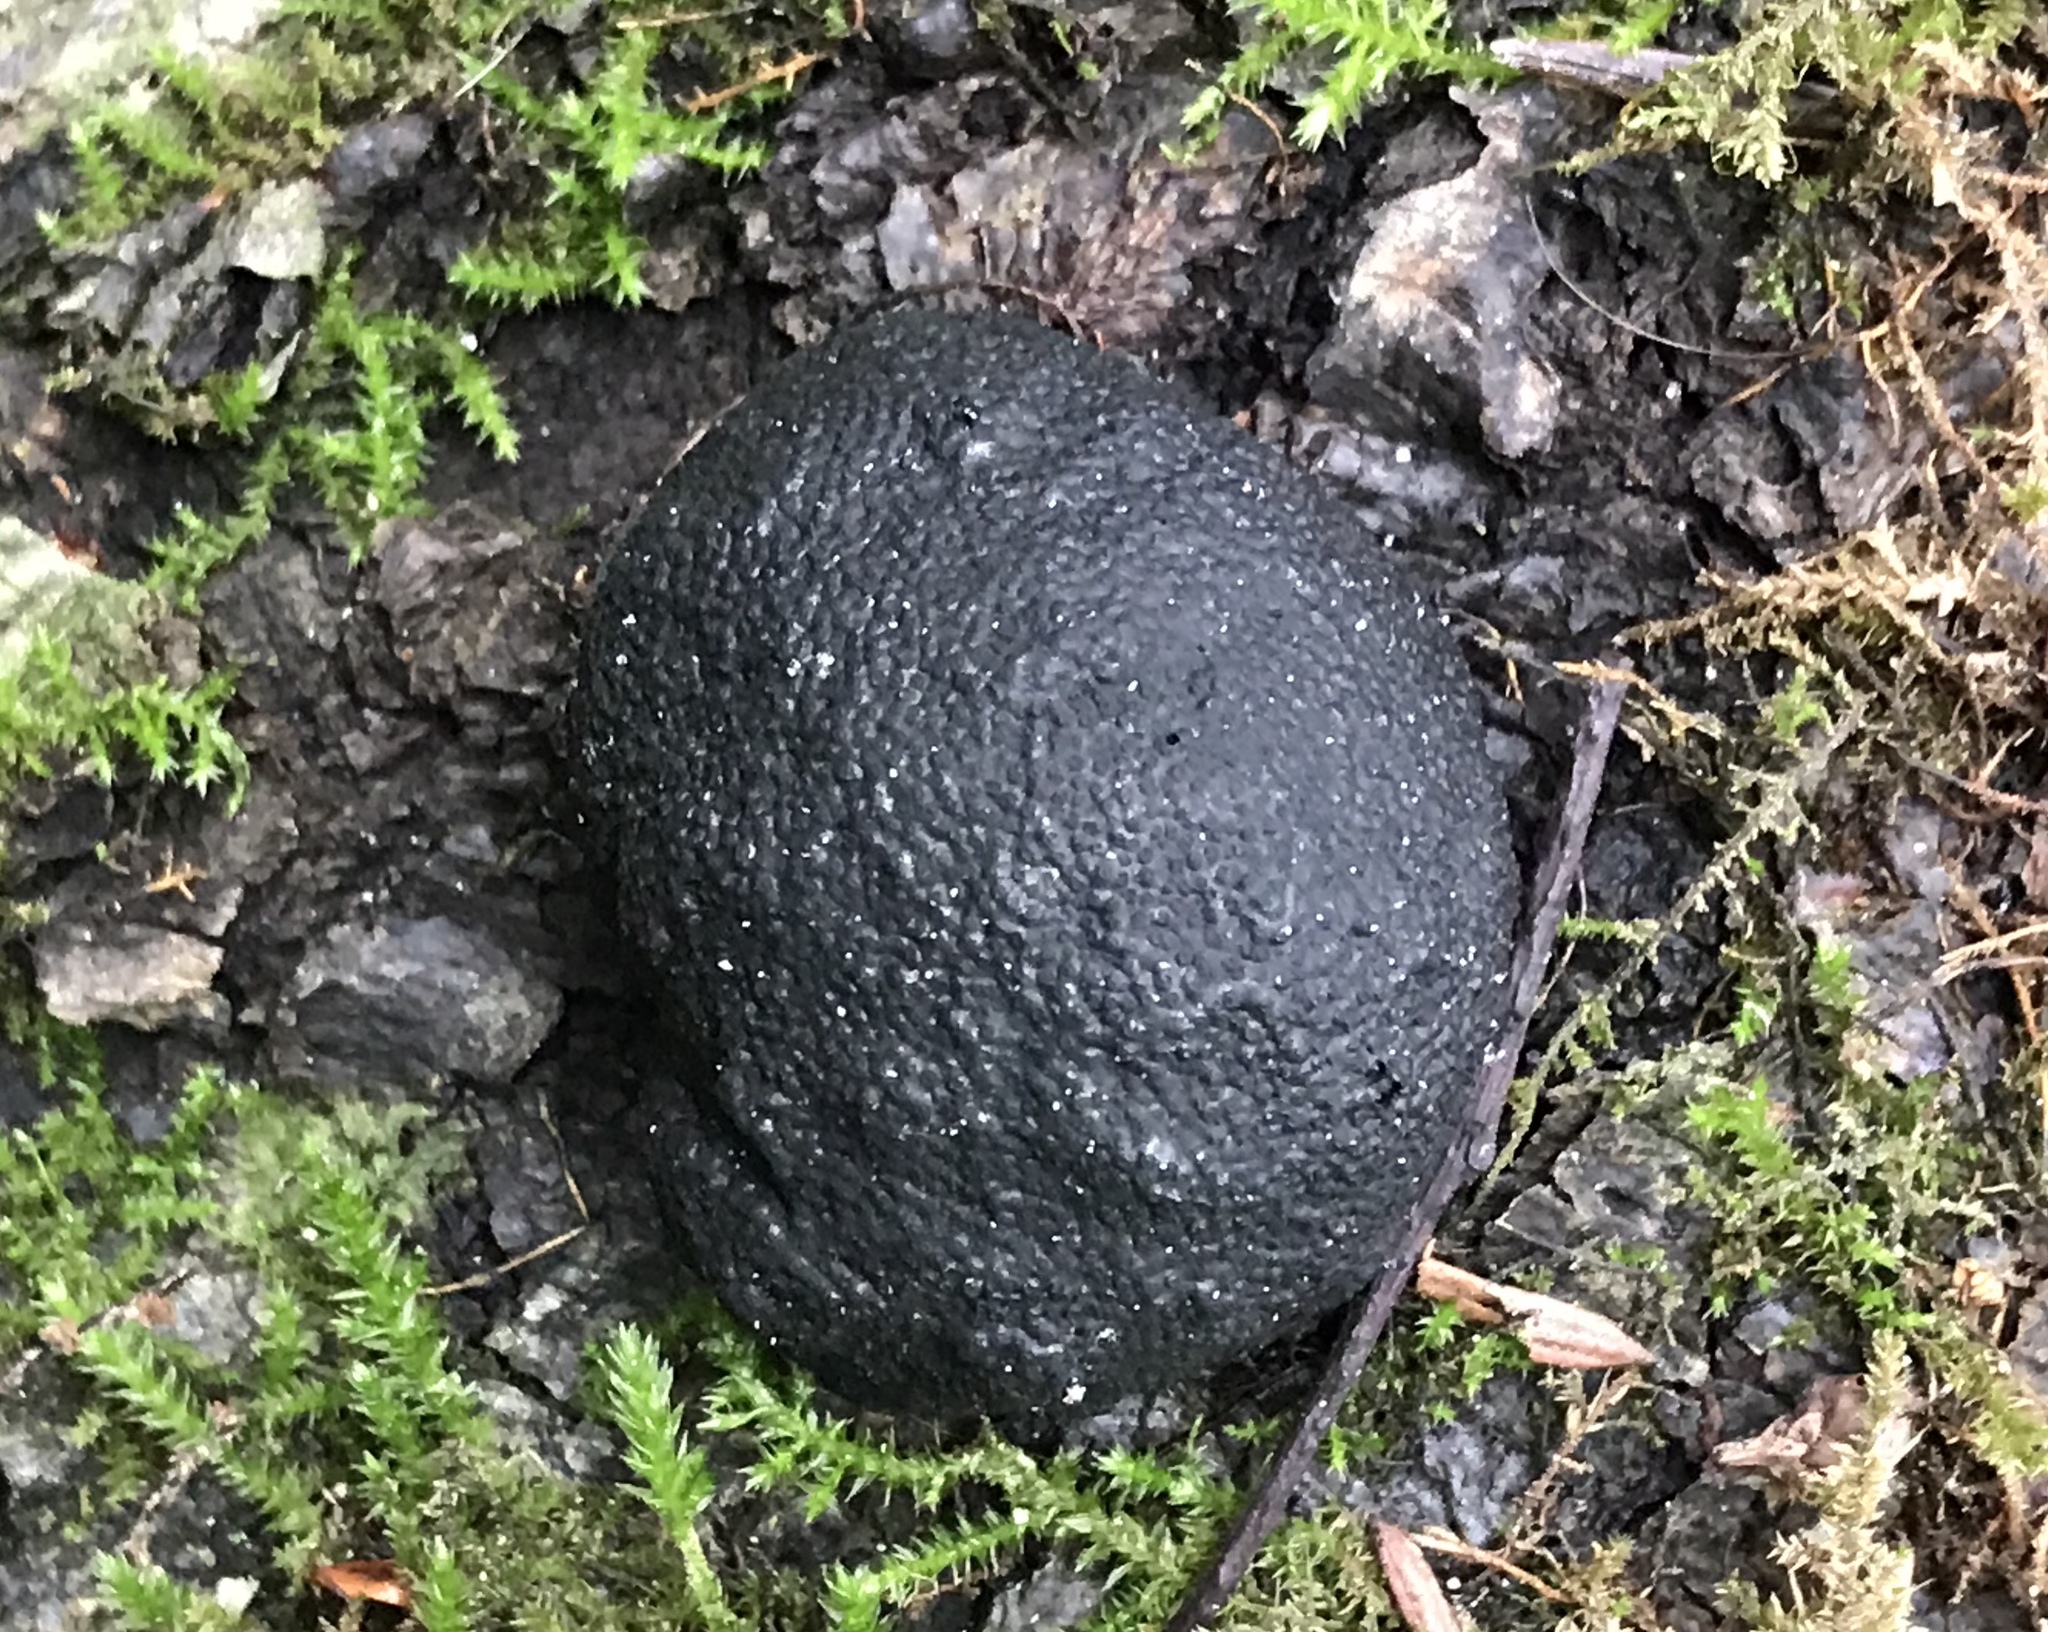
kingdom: Fungi
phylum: Ascomycota
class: Sordariomycetes
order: Xylariales
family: Hypoxylaceae
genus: Annulohypoxylon
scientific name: Annulohypoxylon thouarsianum
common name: Cramp balls
